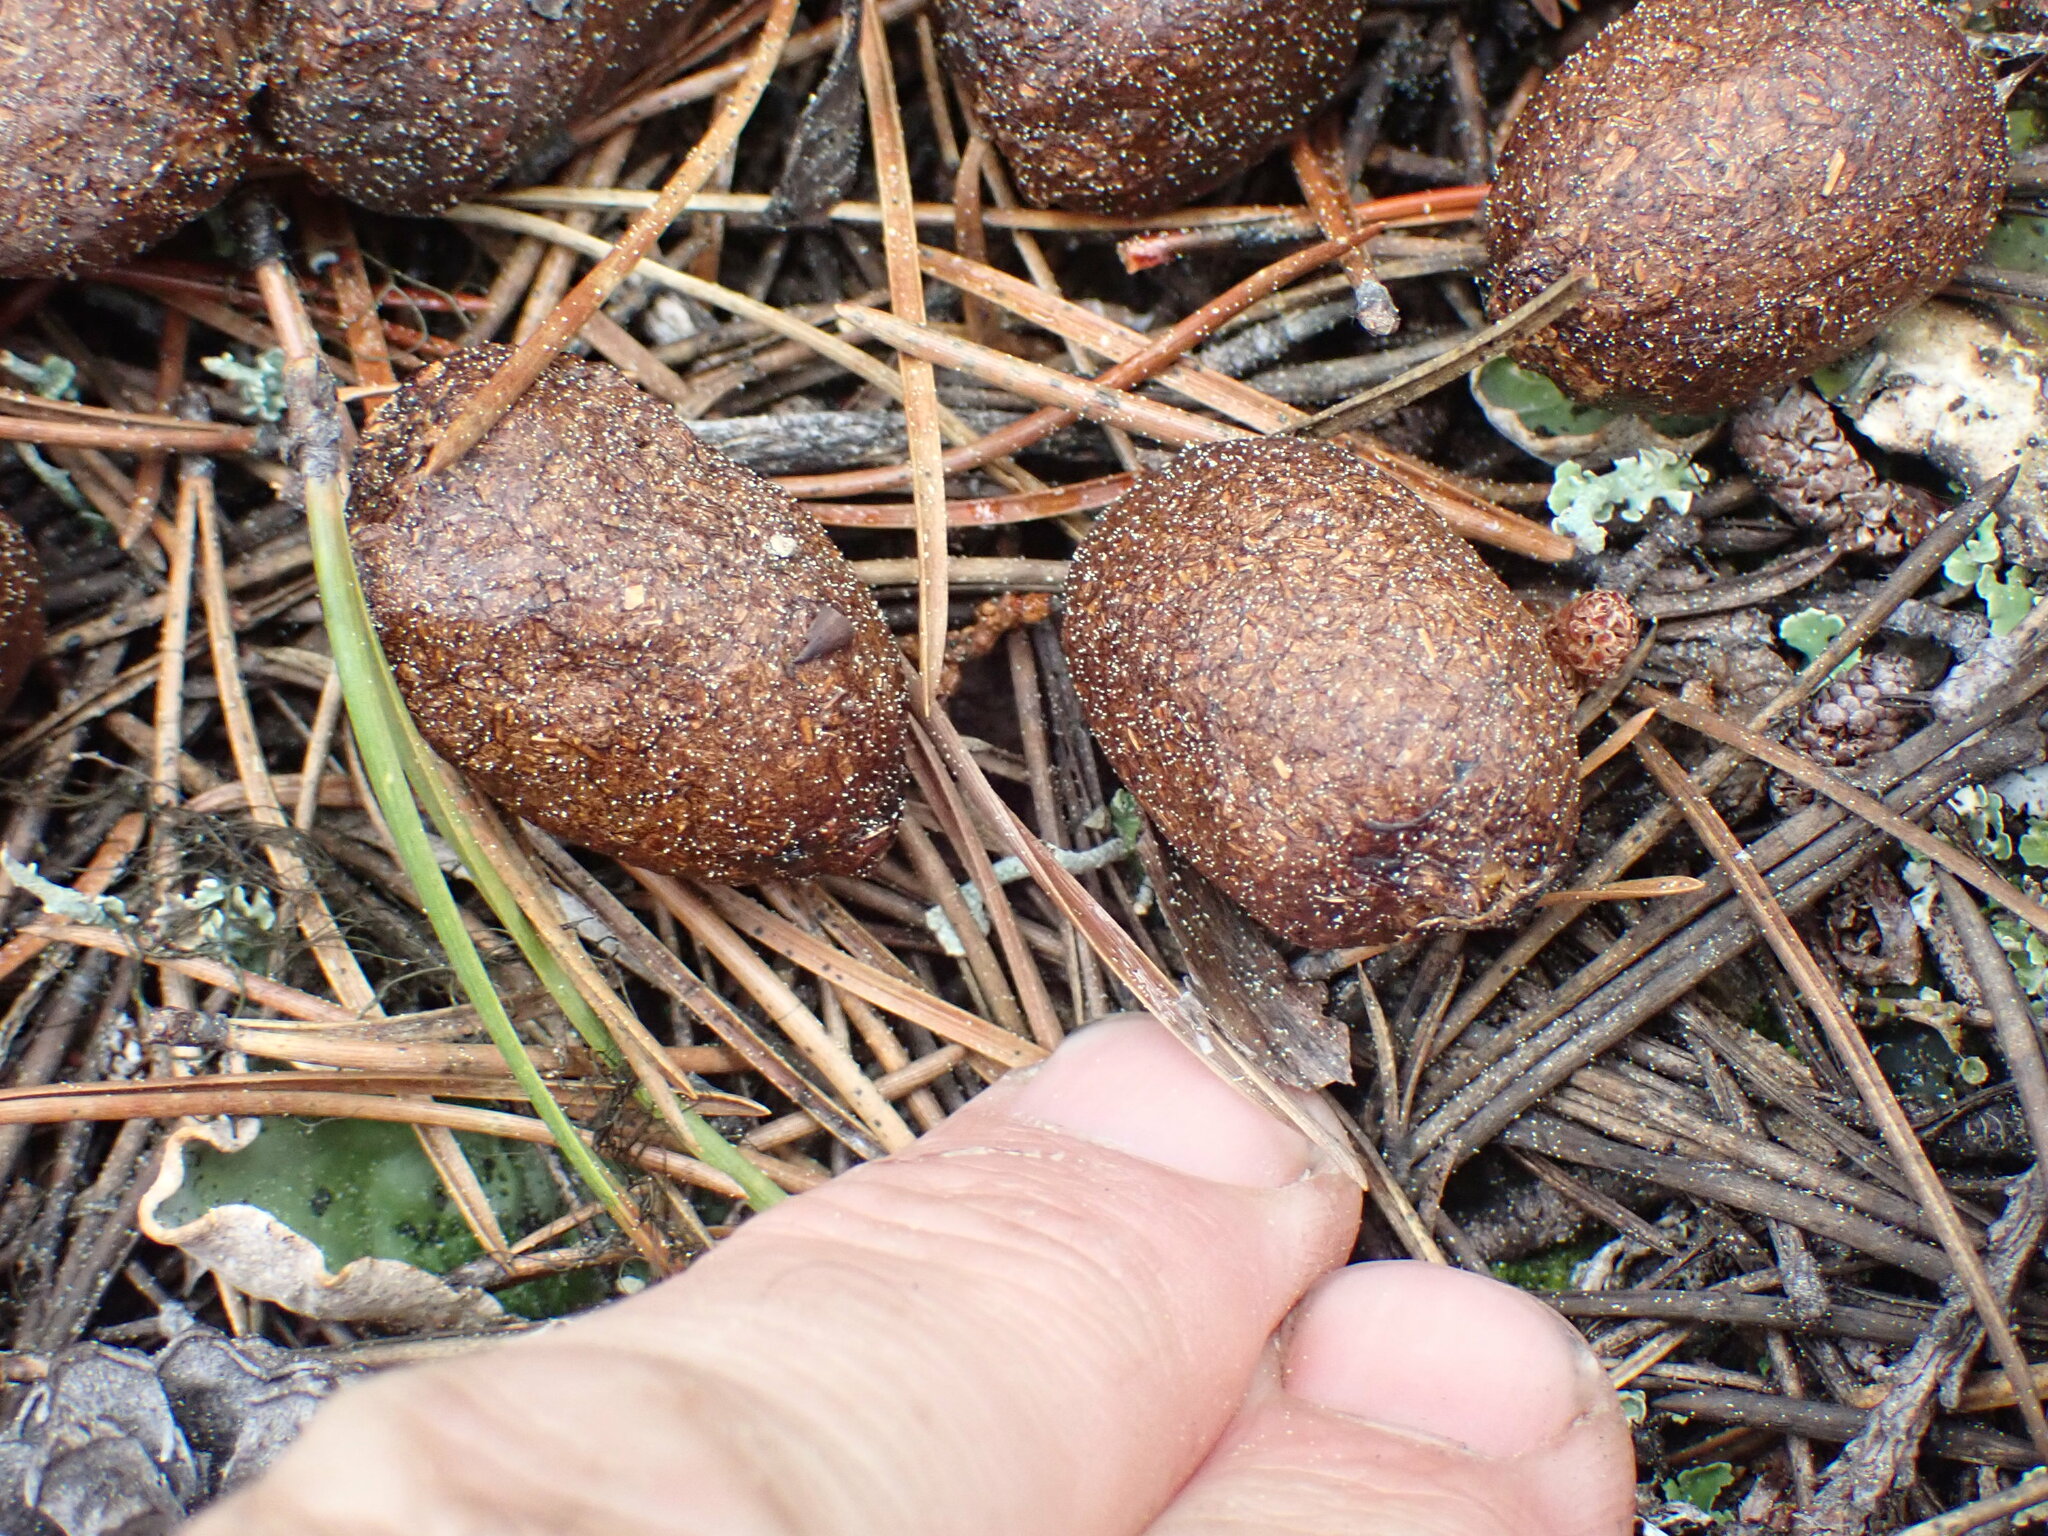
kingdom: Animalia
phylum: Chordata
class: Mammalia
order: Artiodactyla
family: Cervidae
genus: Alces
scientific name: Alces alces
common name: Moose
